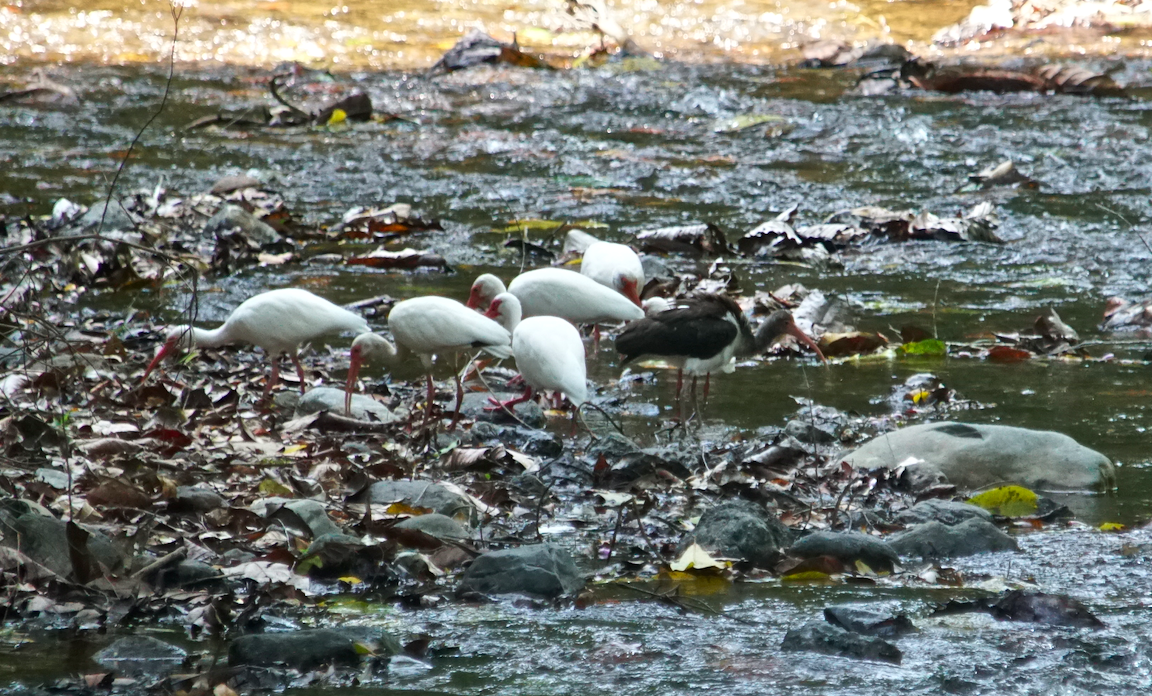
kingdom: Animalia
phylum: Chordata
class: Aves
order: Pelecaniformes
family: Threskiornithidae
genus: Eudocimus
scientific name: Eudocimus albus
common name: White ibis
